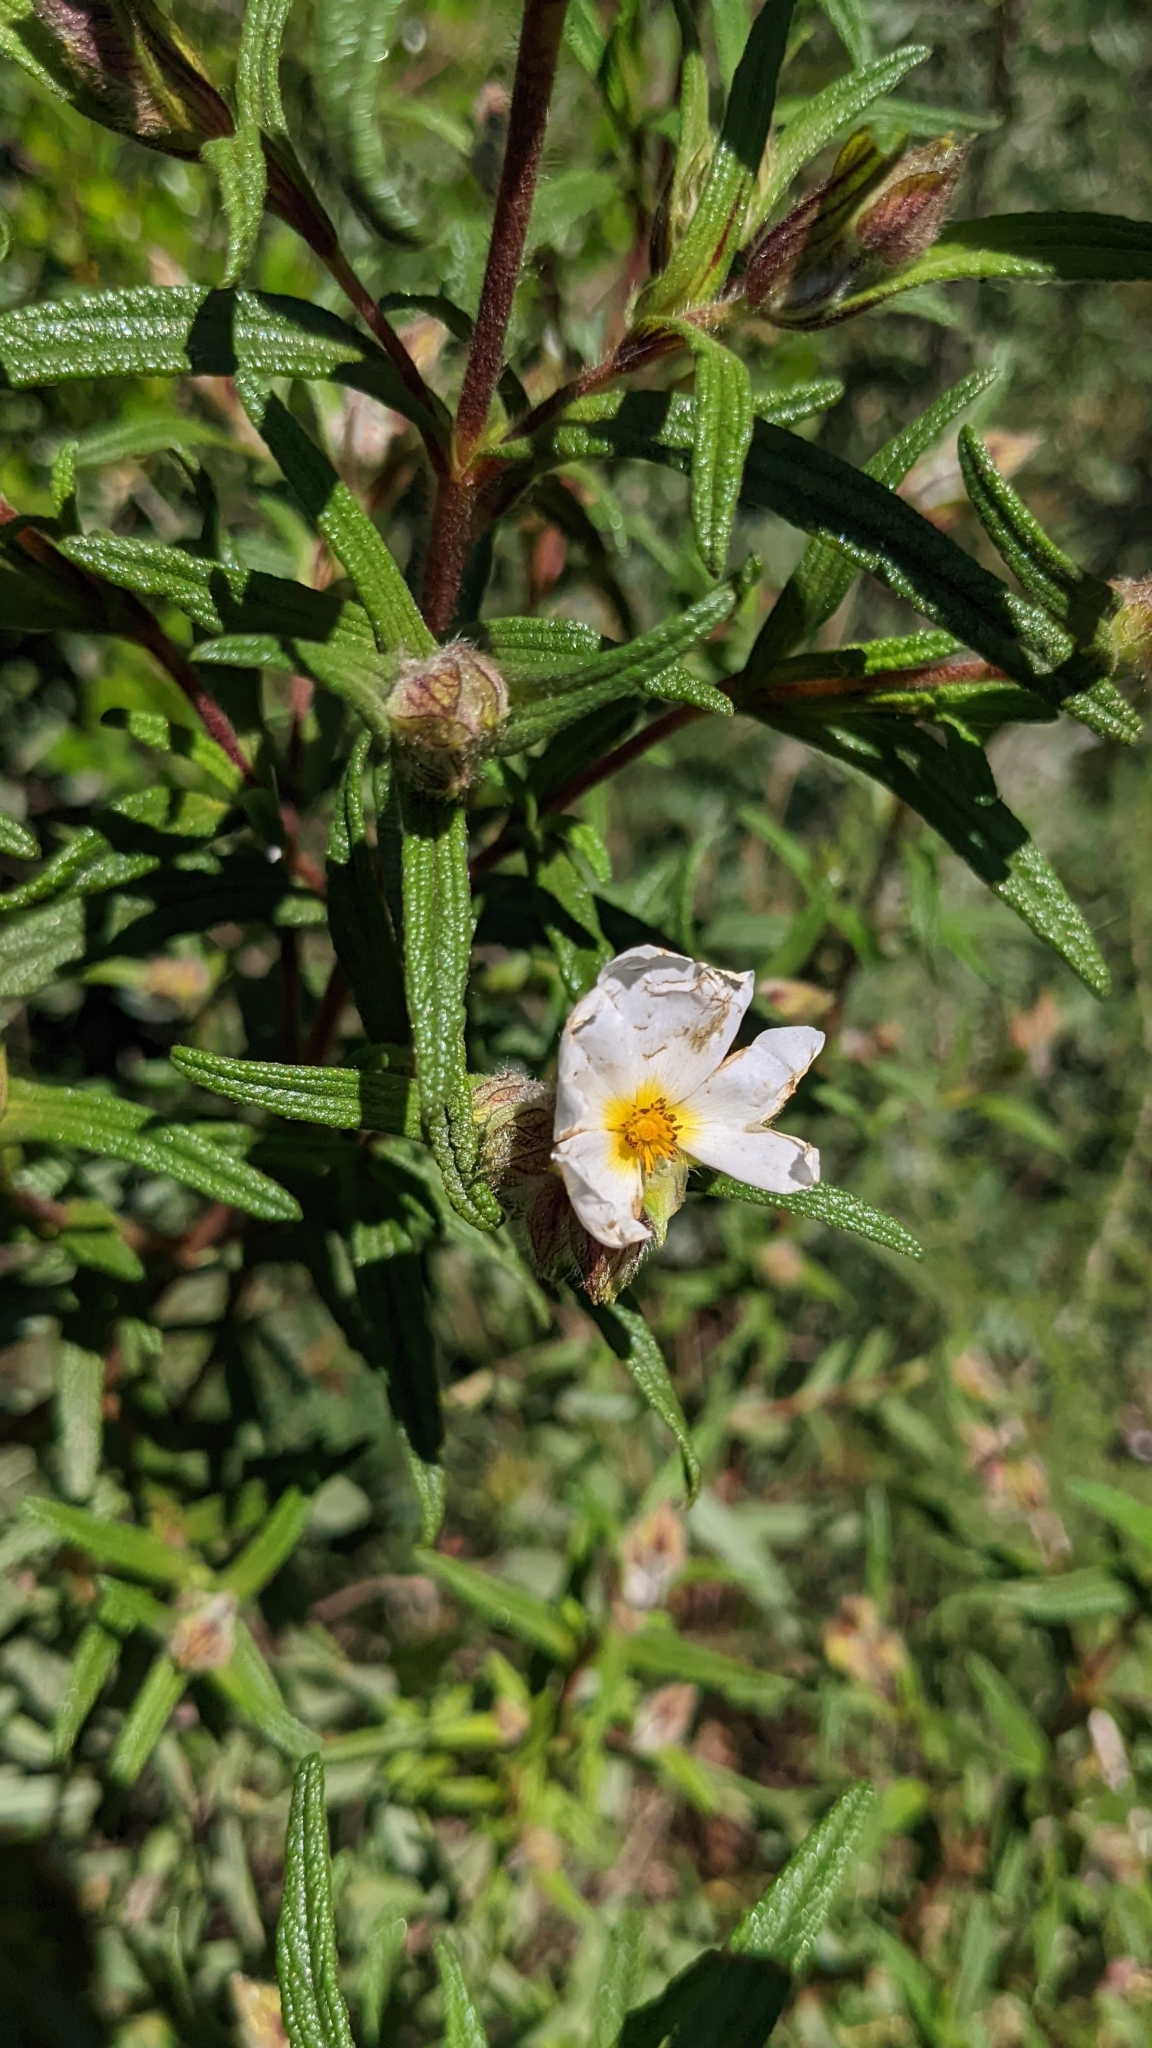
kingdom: Plantae
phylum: Tracheophyta
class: Magnoliopsida
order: Malvales
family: Cistaceae
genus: Cistus
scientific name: Cistus monspeliensis
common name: Montpelier cistus
